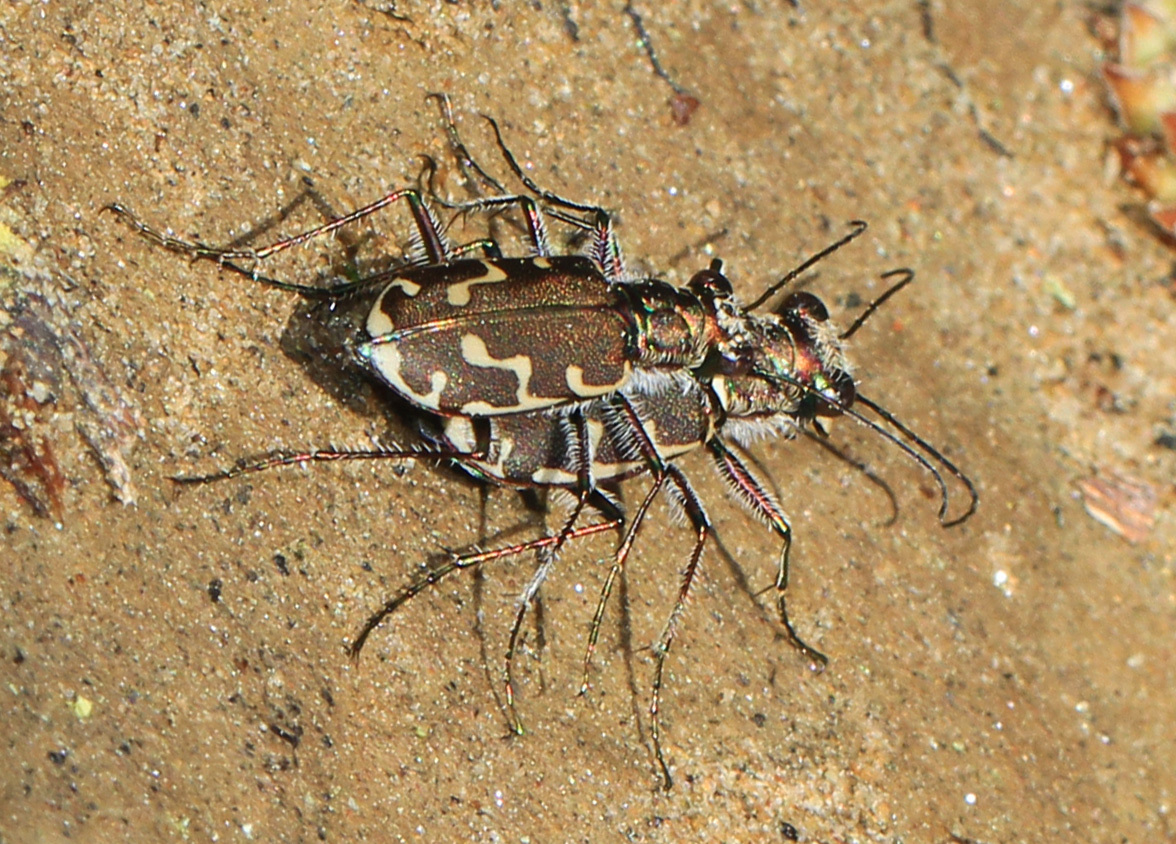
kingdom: Animalia
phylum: Arthropoda
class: Insecta
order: Coleoptera
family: Carabidae
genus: Cicindela
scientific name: Cicindela repanda
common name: Bronzed tiger beetle
